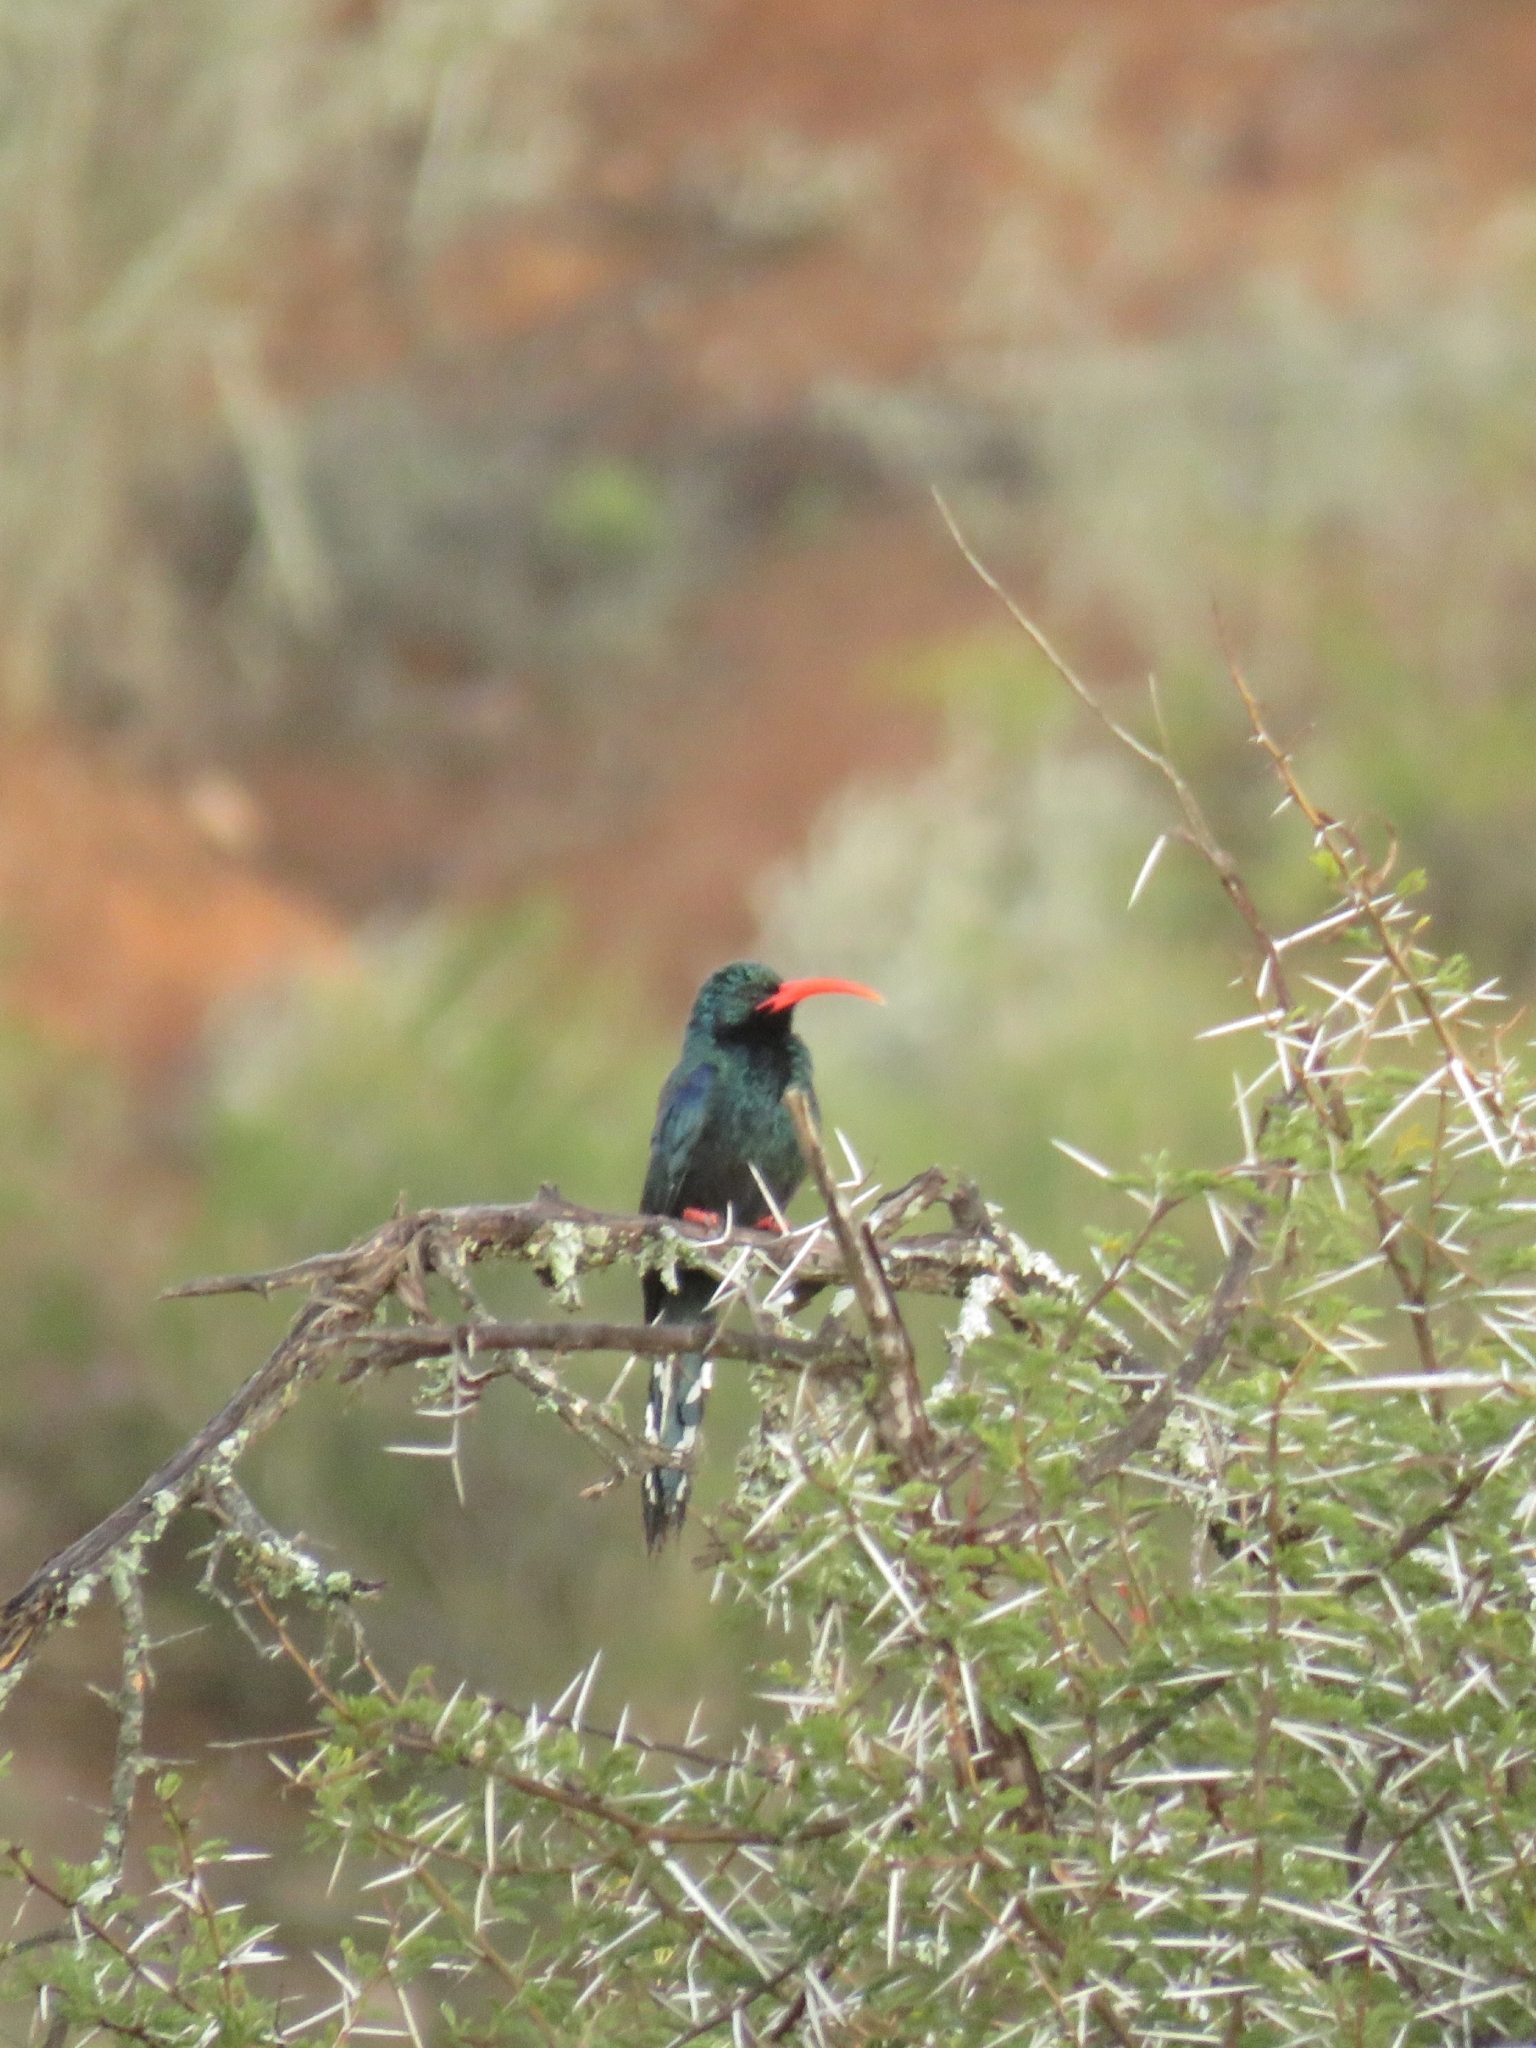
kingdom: Animalia
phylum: Chordata
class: Aves
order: Bucerotiformes
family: Phoeniculidae
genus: Phoeniculus
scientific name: Phoeniculus purpureus
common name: Green woodhoopoe
